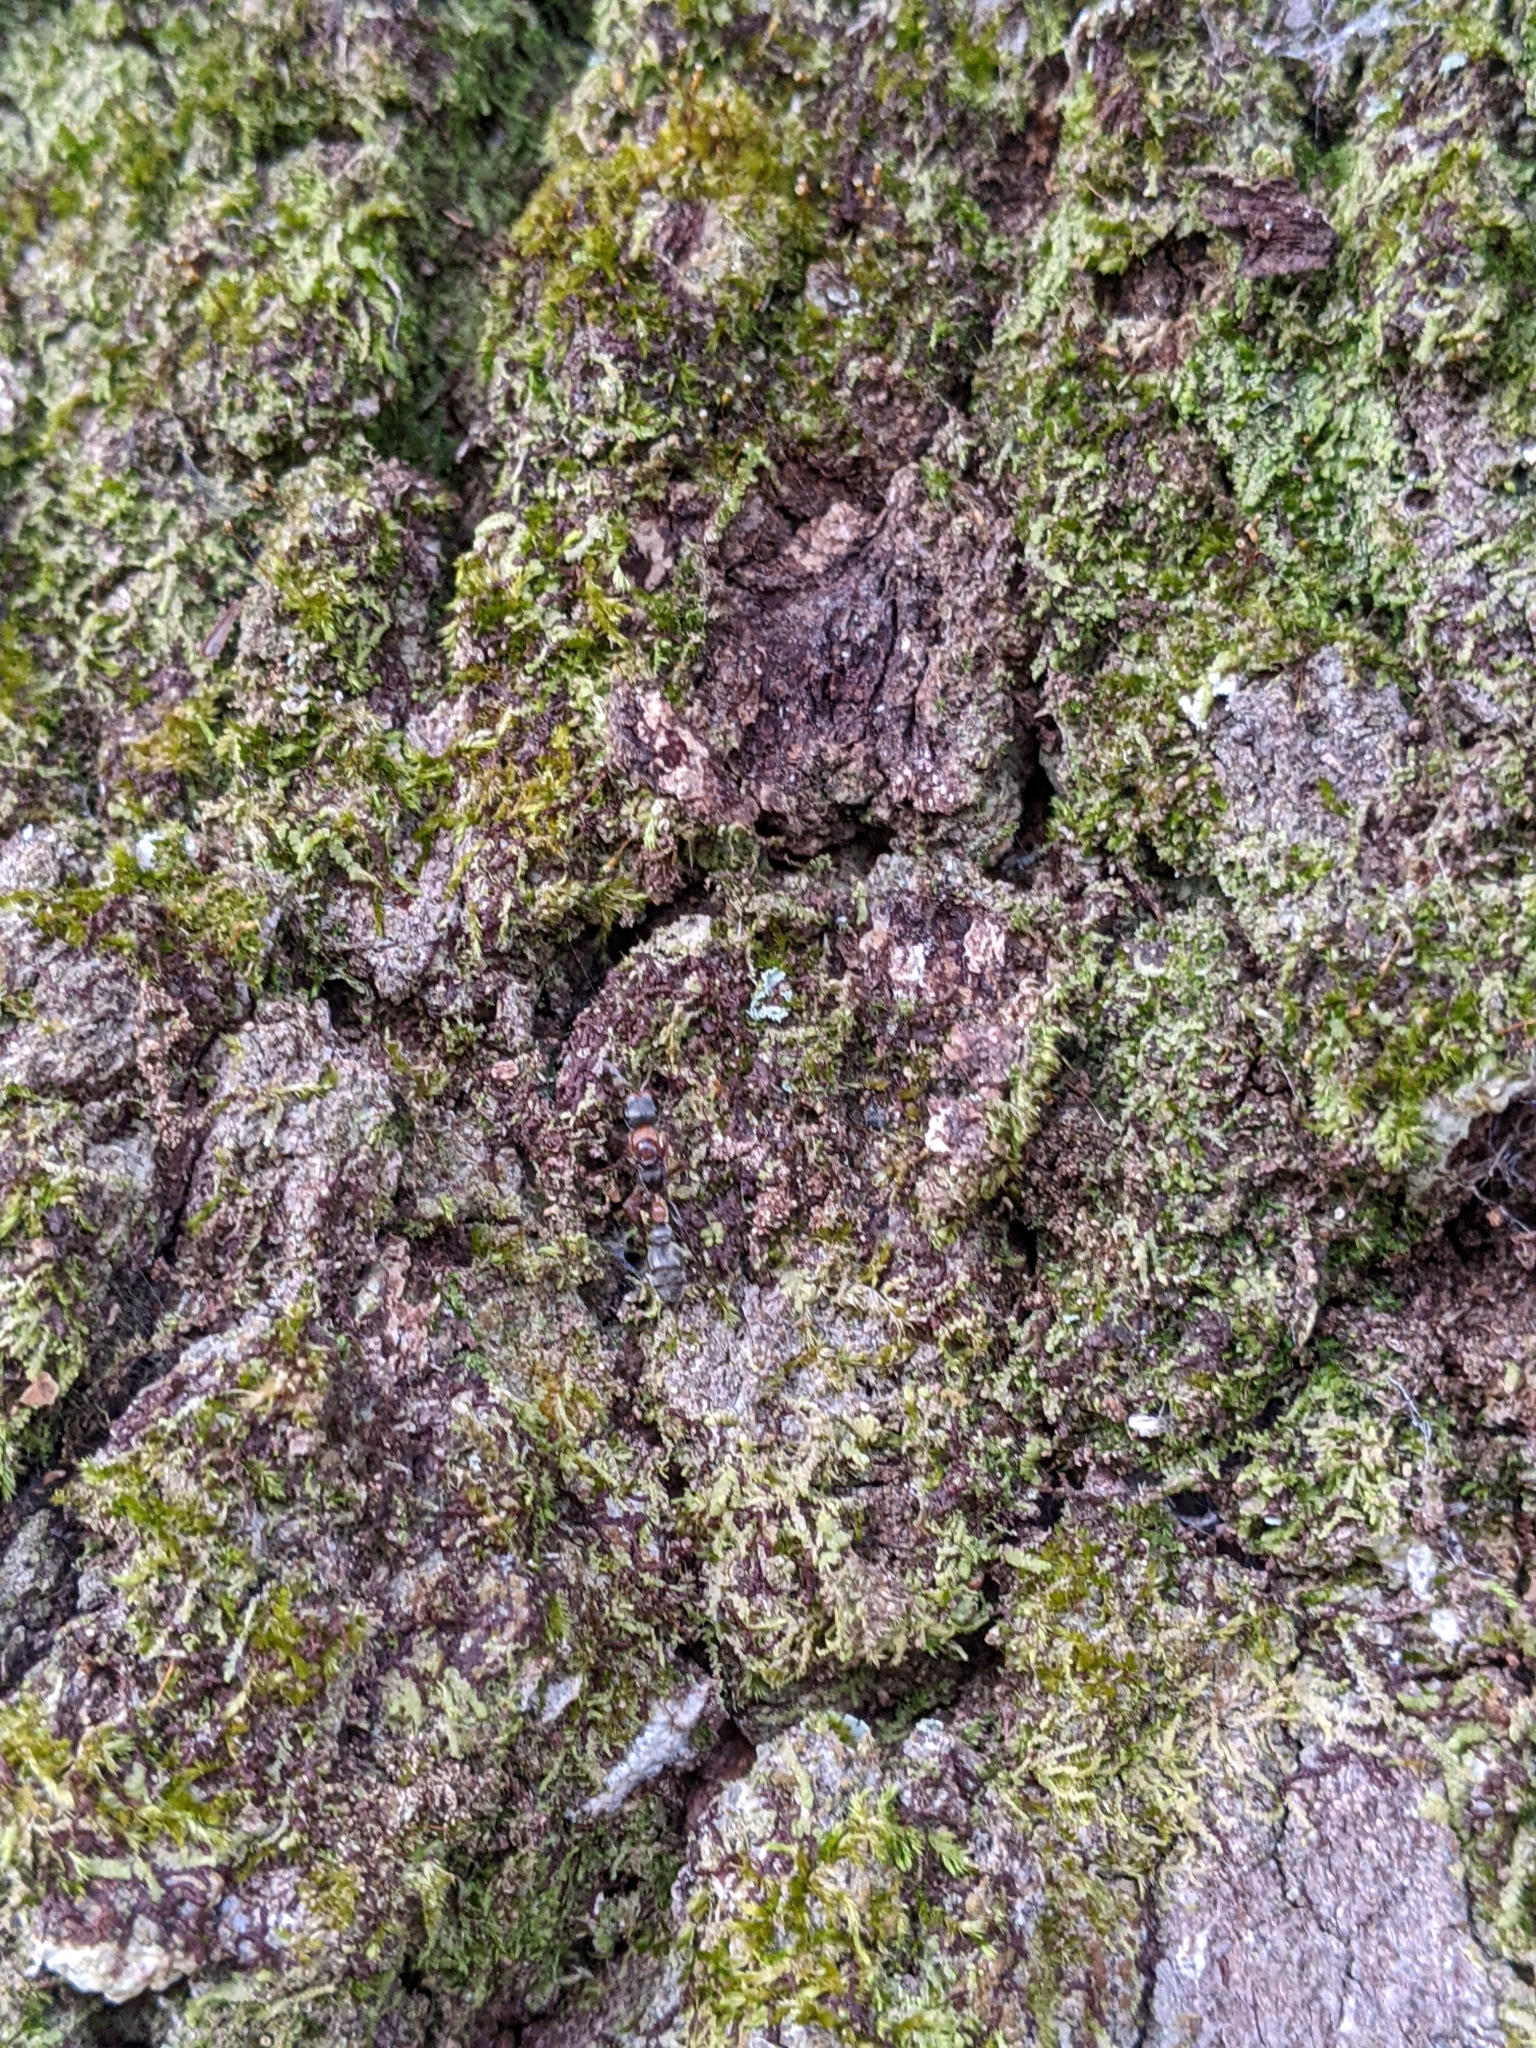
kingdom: Animalia
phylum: Arthropoda
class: Insecta
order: Hymenoptera
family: Formicidae
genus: Pseudomyrmex
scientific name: Pseudomyrmex gracilis
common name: Graceful twig ant
